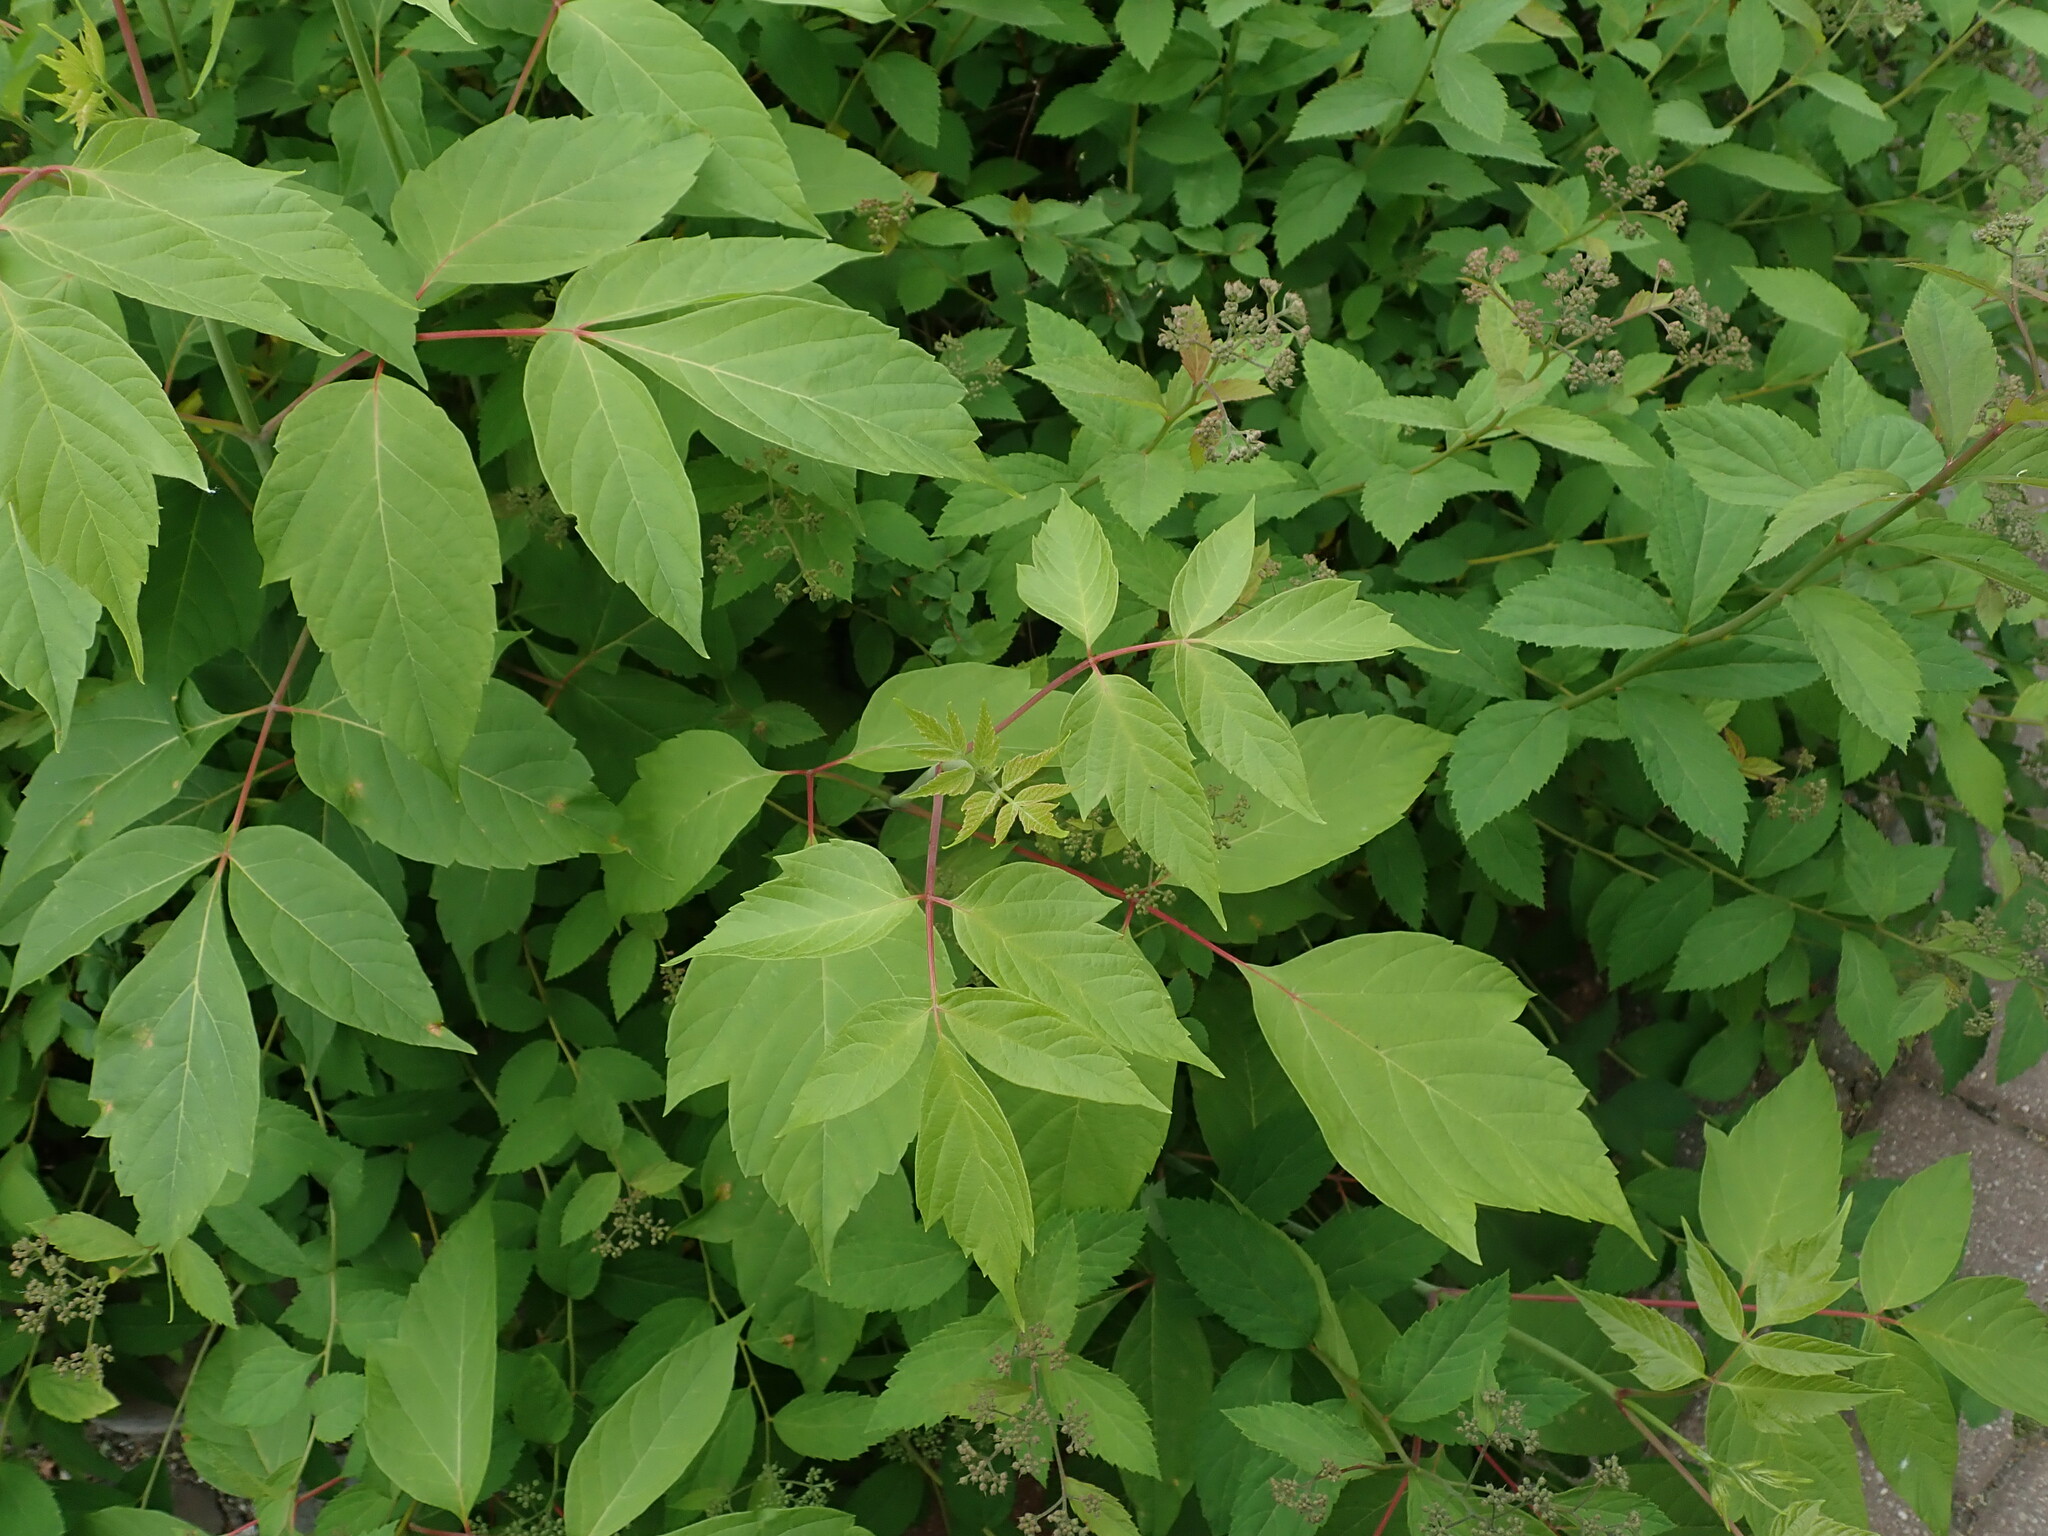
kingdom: Plantae
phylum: Tracheophyta
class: Magnoliopsida
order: Sapindales
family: Sapindaceae
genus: Acer
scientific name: Acer negundo
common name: Ashleaf maple
